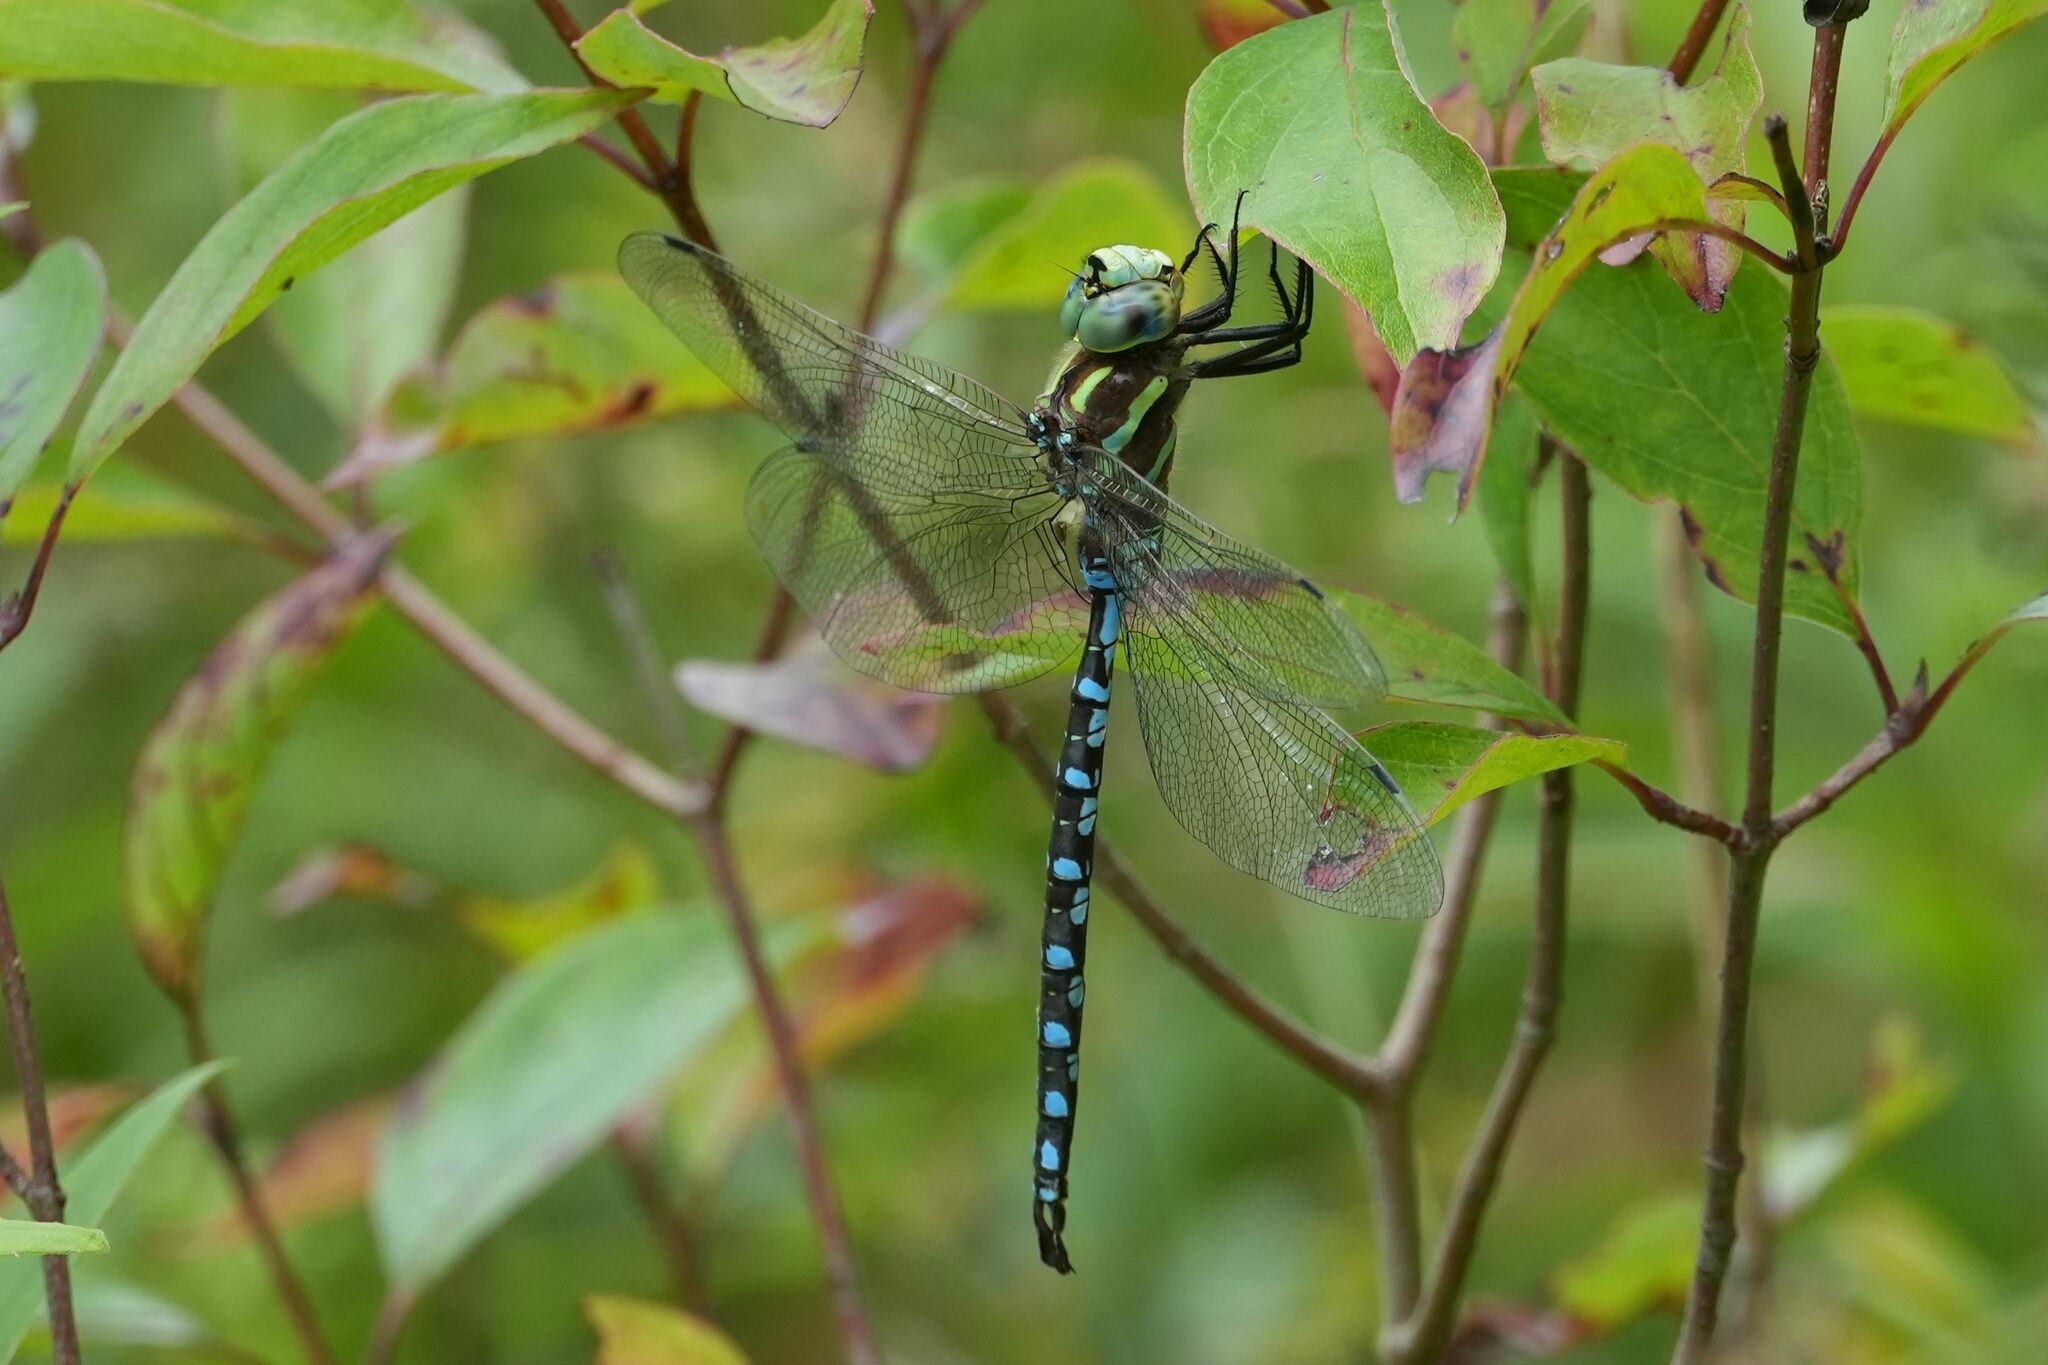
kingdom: Animalia
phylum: Arthropoda
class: Insecta
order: Odonata
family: Aeshnidae
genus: Aeshna
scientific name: Aeshna constricta
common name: Lance-tipped darner
